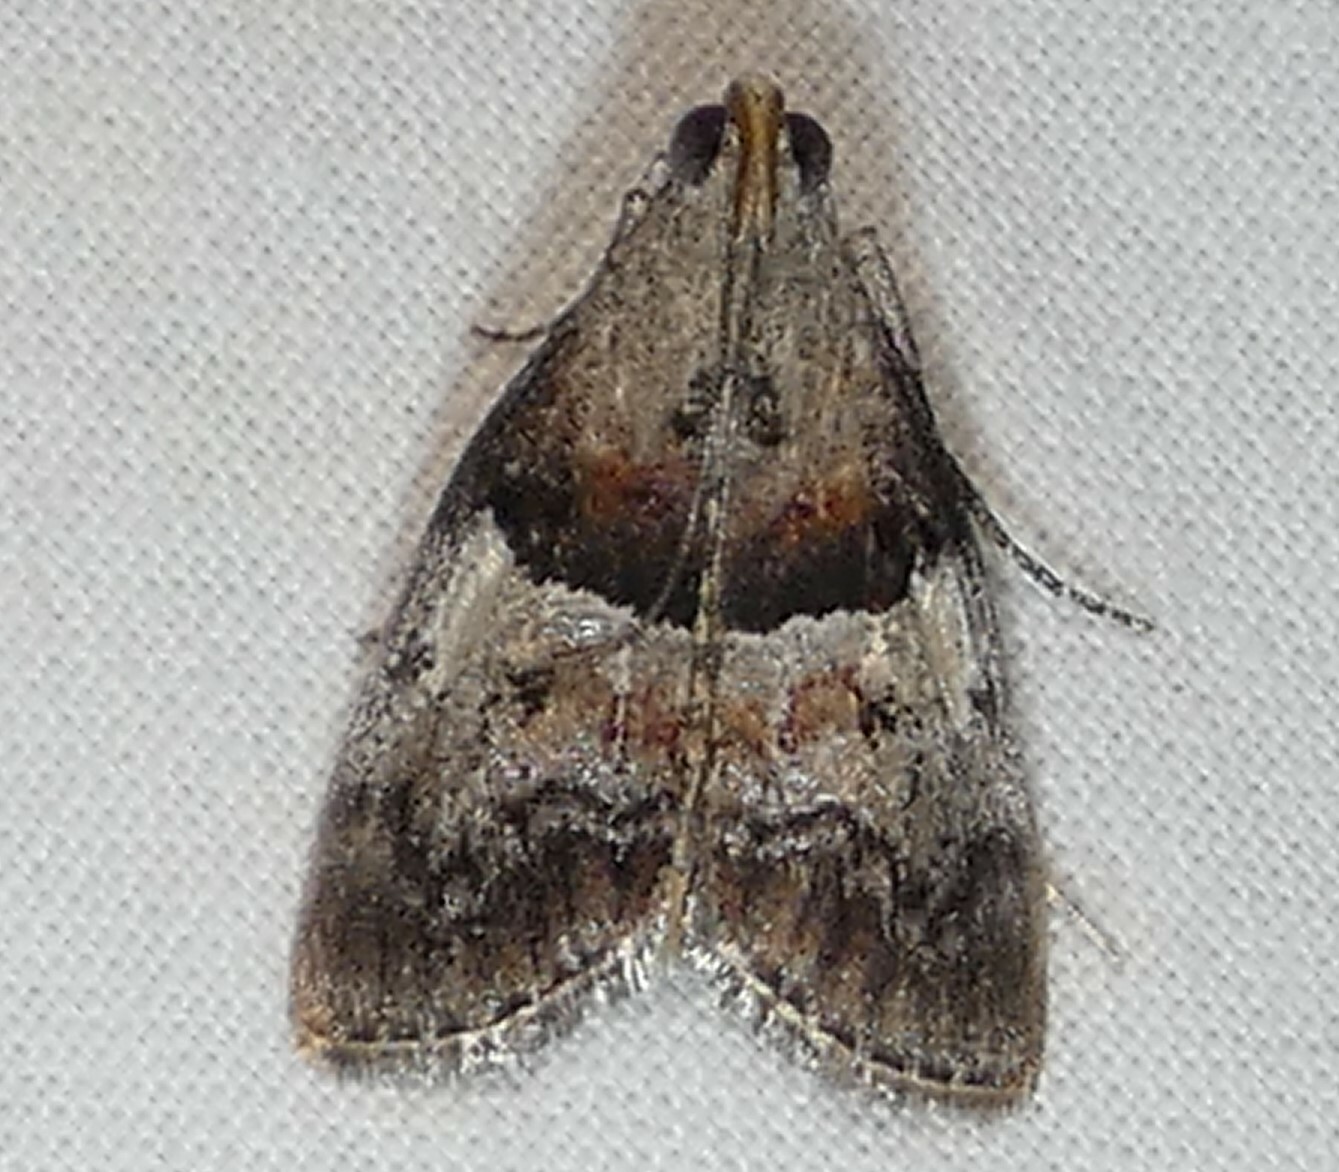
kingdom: Animalia
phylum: Arthropoda
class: Insecta
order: Lepidoptera
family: Pyralidae
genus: Pococera
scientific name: Pococera robustella
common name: Pine webworm moth
